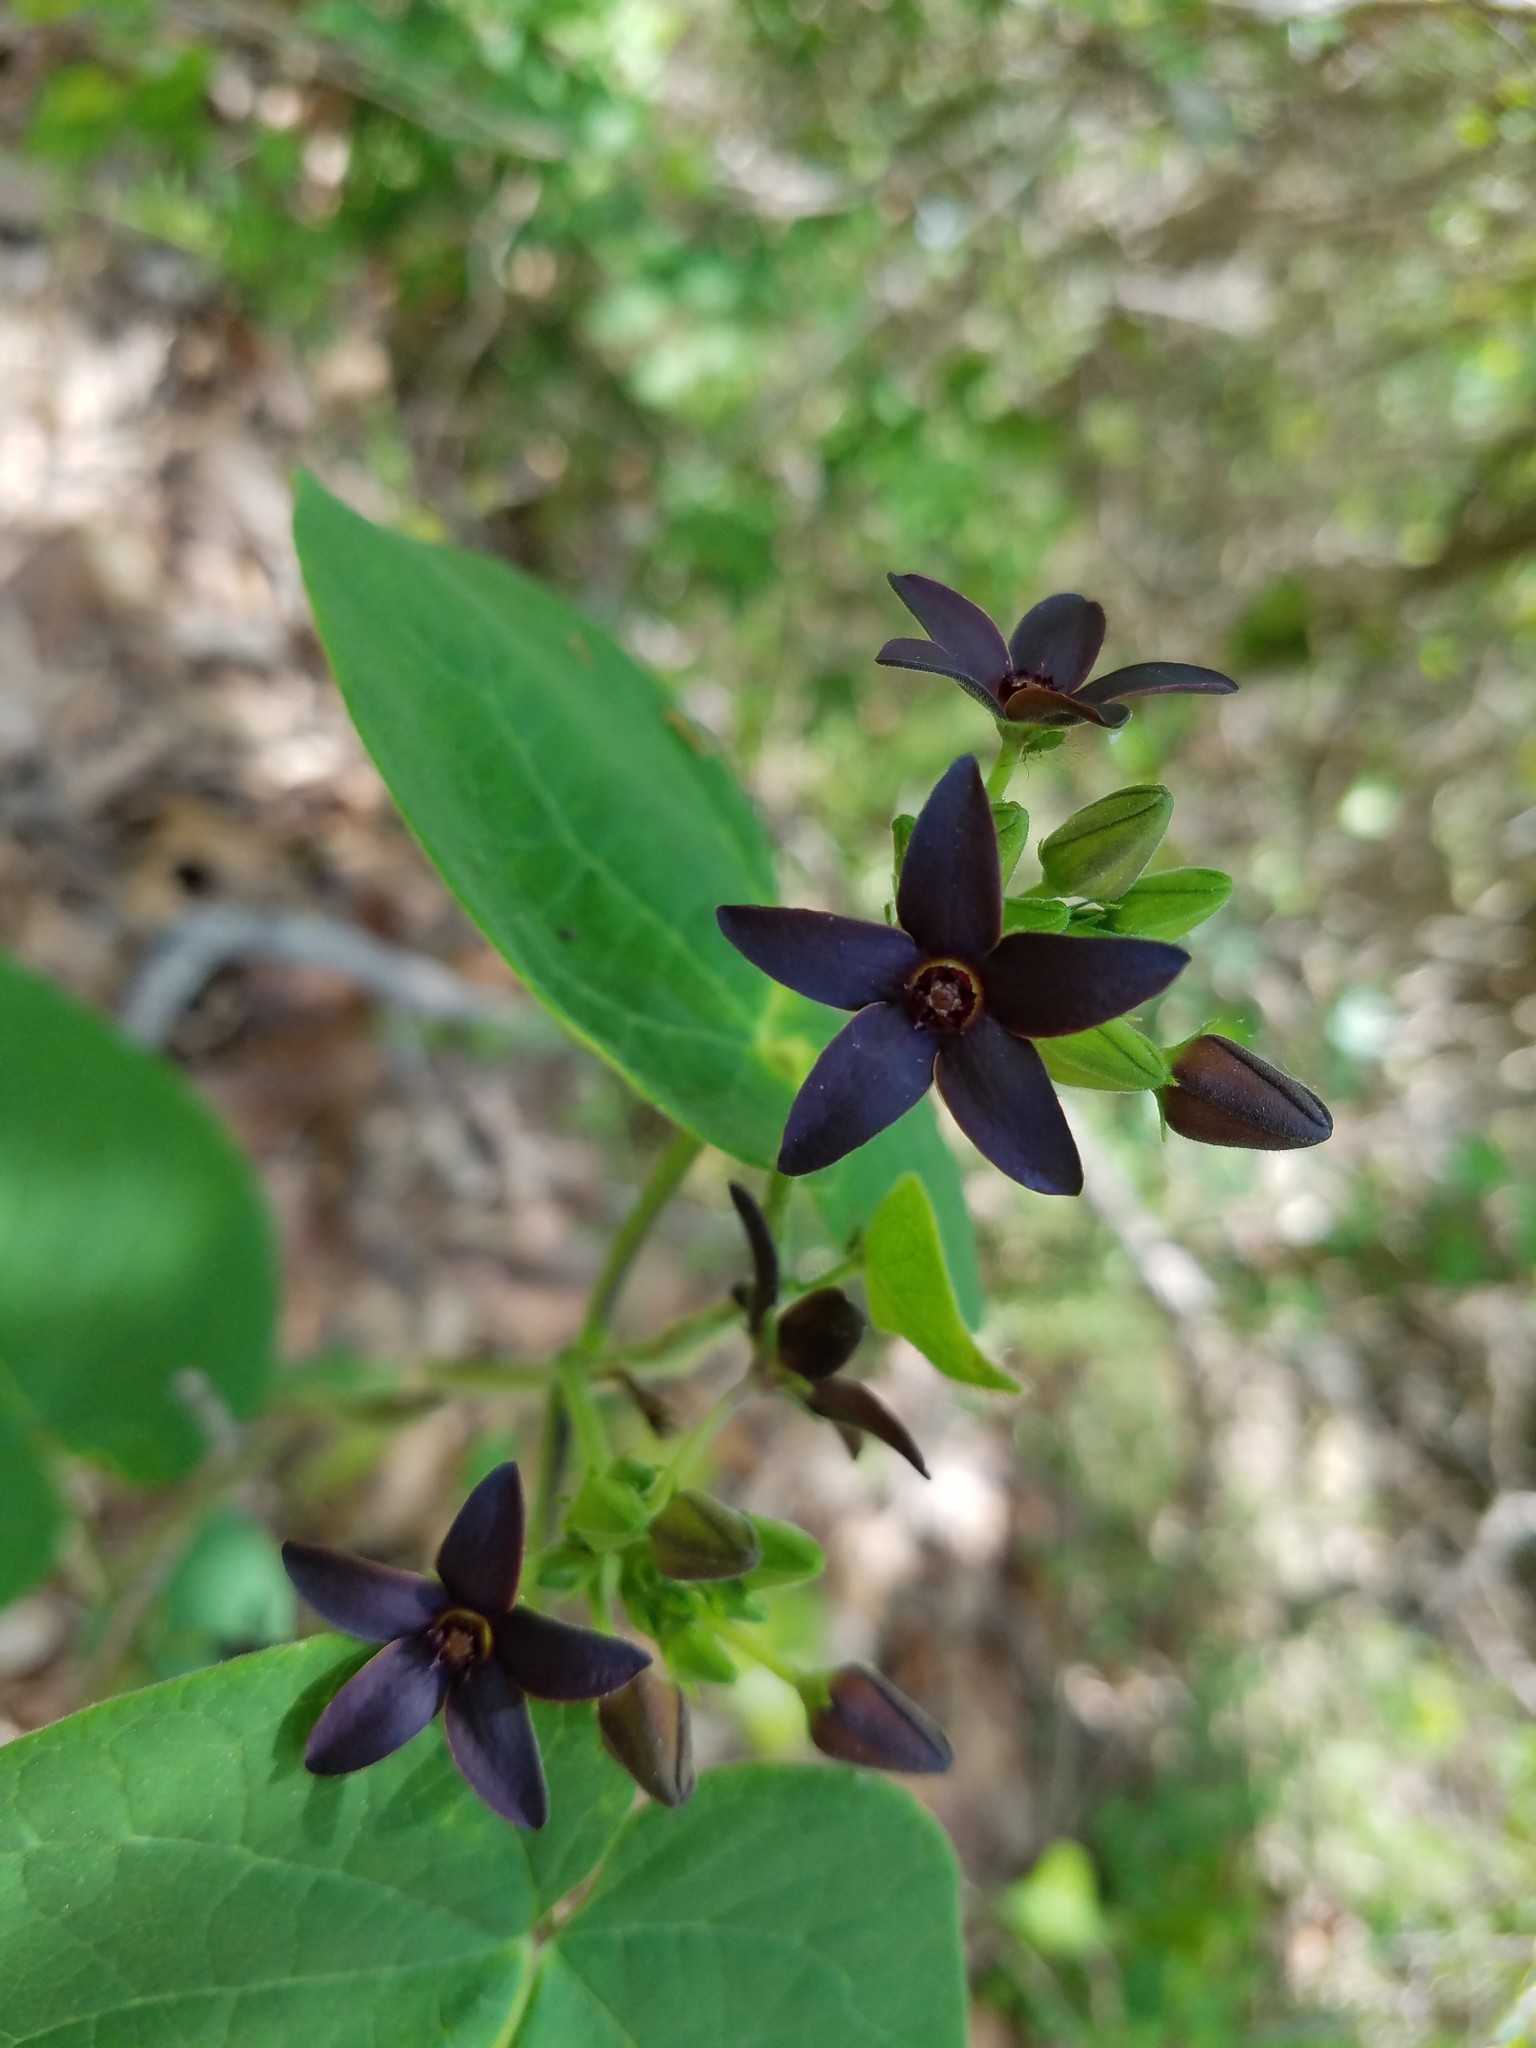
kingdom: Plantae
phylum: Tracheophyta
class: Magnoliopsida
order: Gentianales
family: Apocynaceae
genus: Matelea
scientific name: Matelea carolinensis
